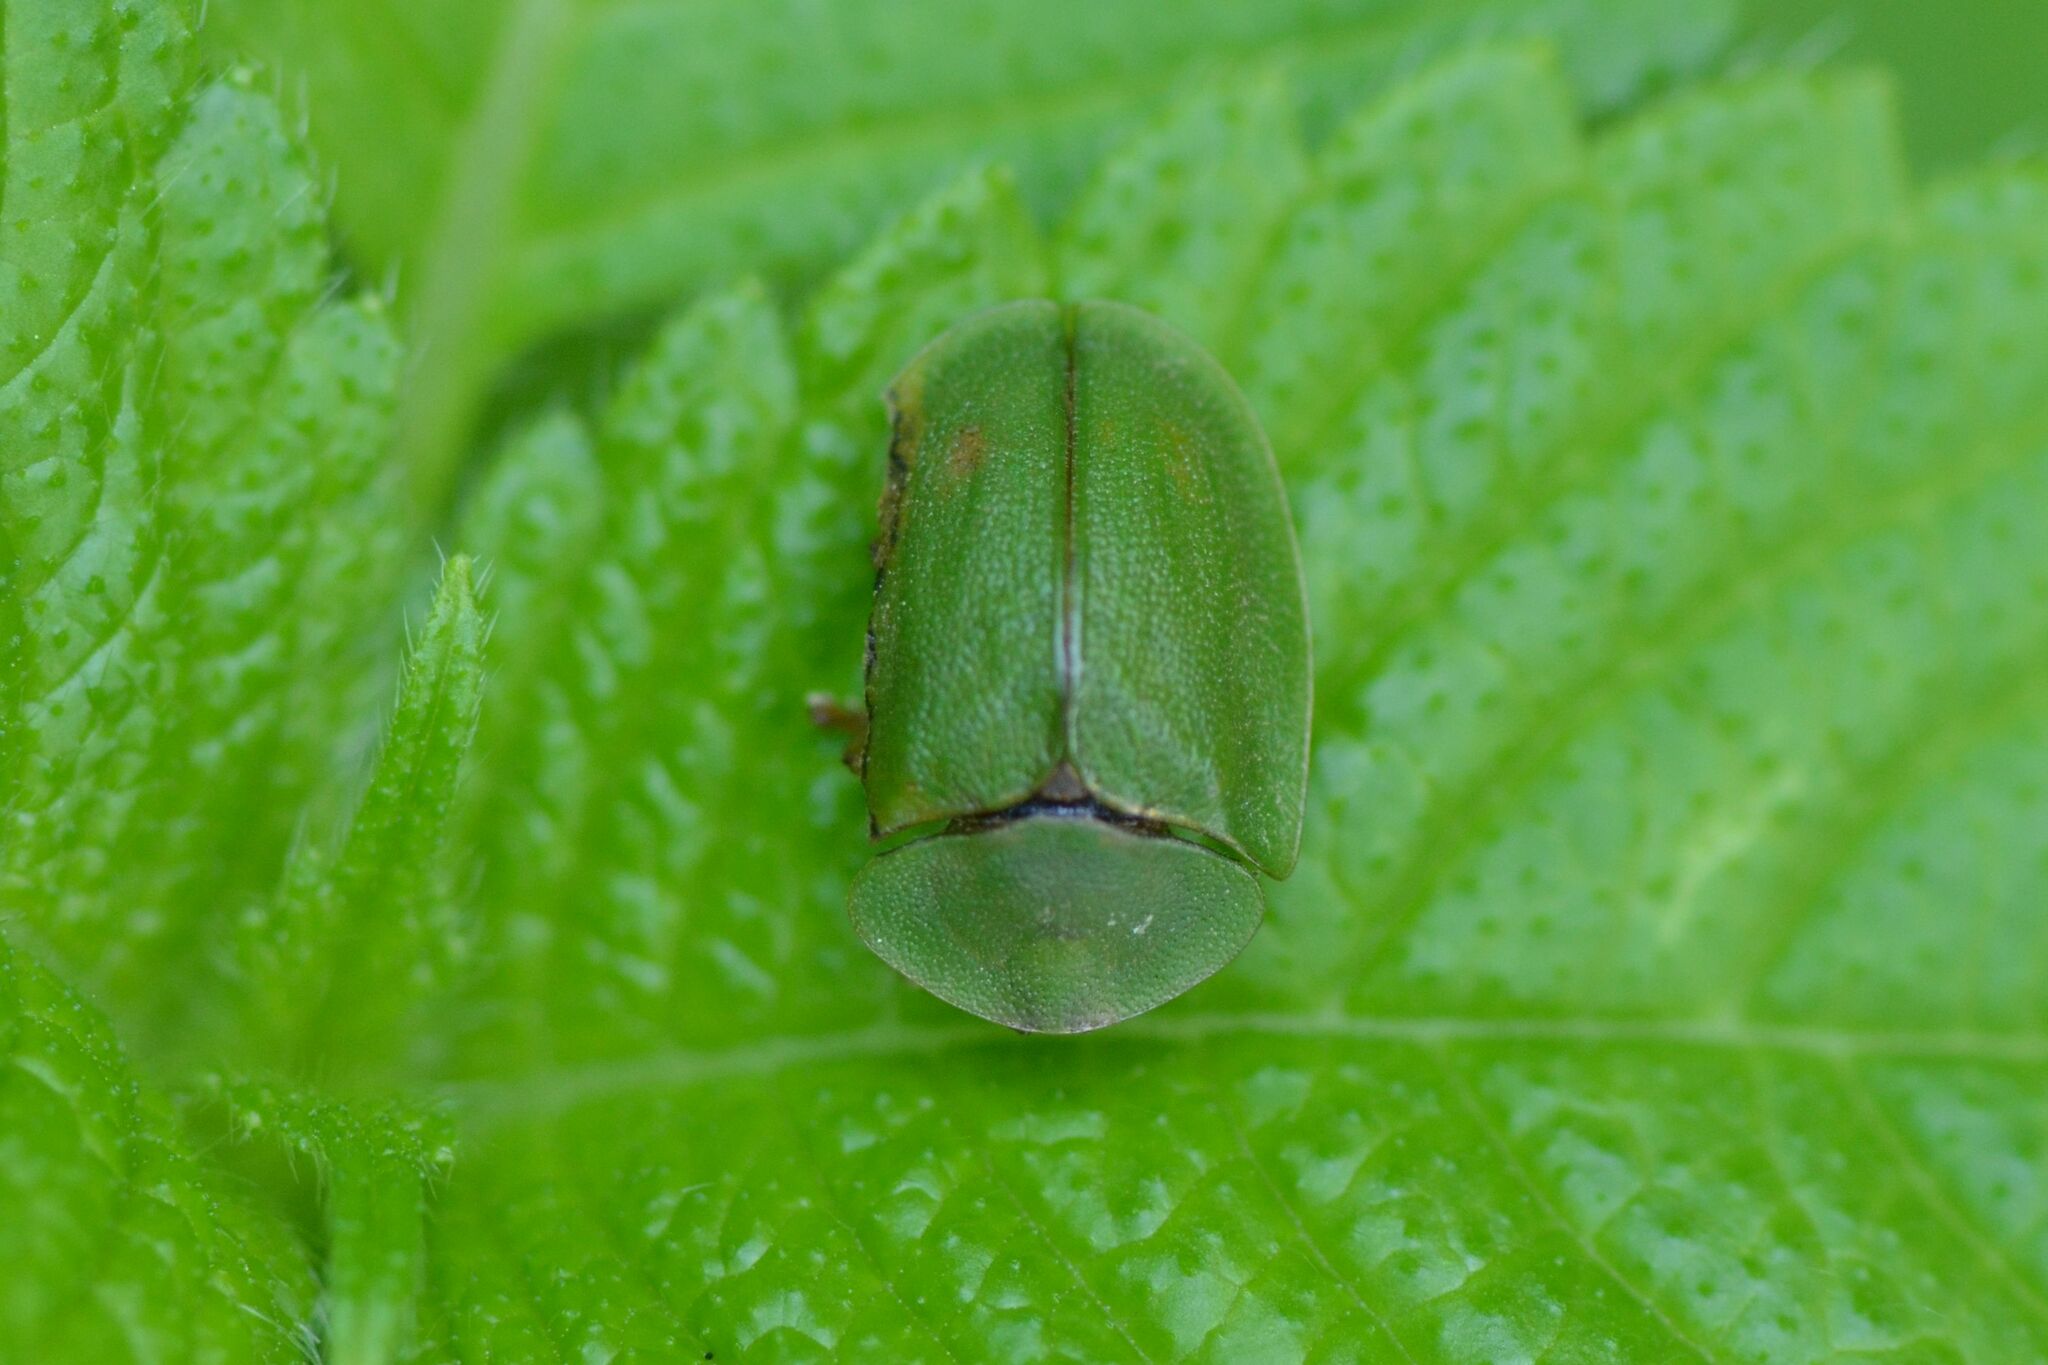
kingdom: Animalia
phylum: Arthropoda
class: Insecta
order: Coleoptera
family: Chrysomelidae
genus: Cassida
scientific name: Cassida viridis
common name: Green tortoise beetle
